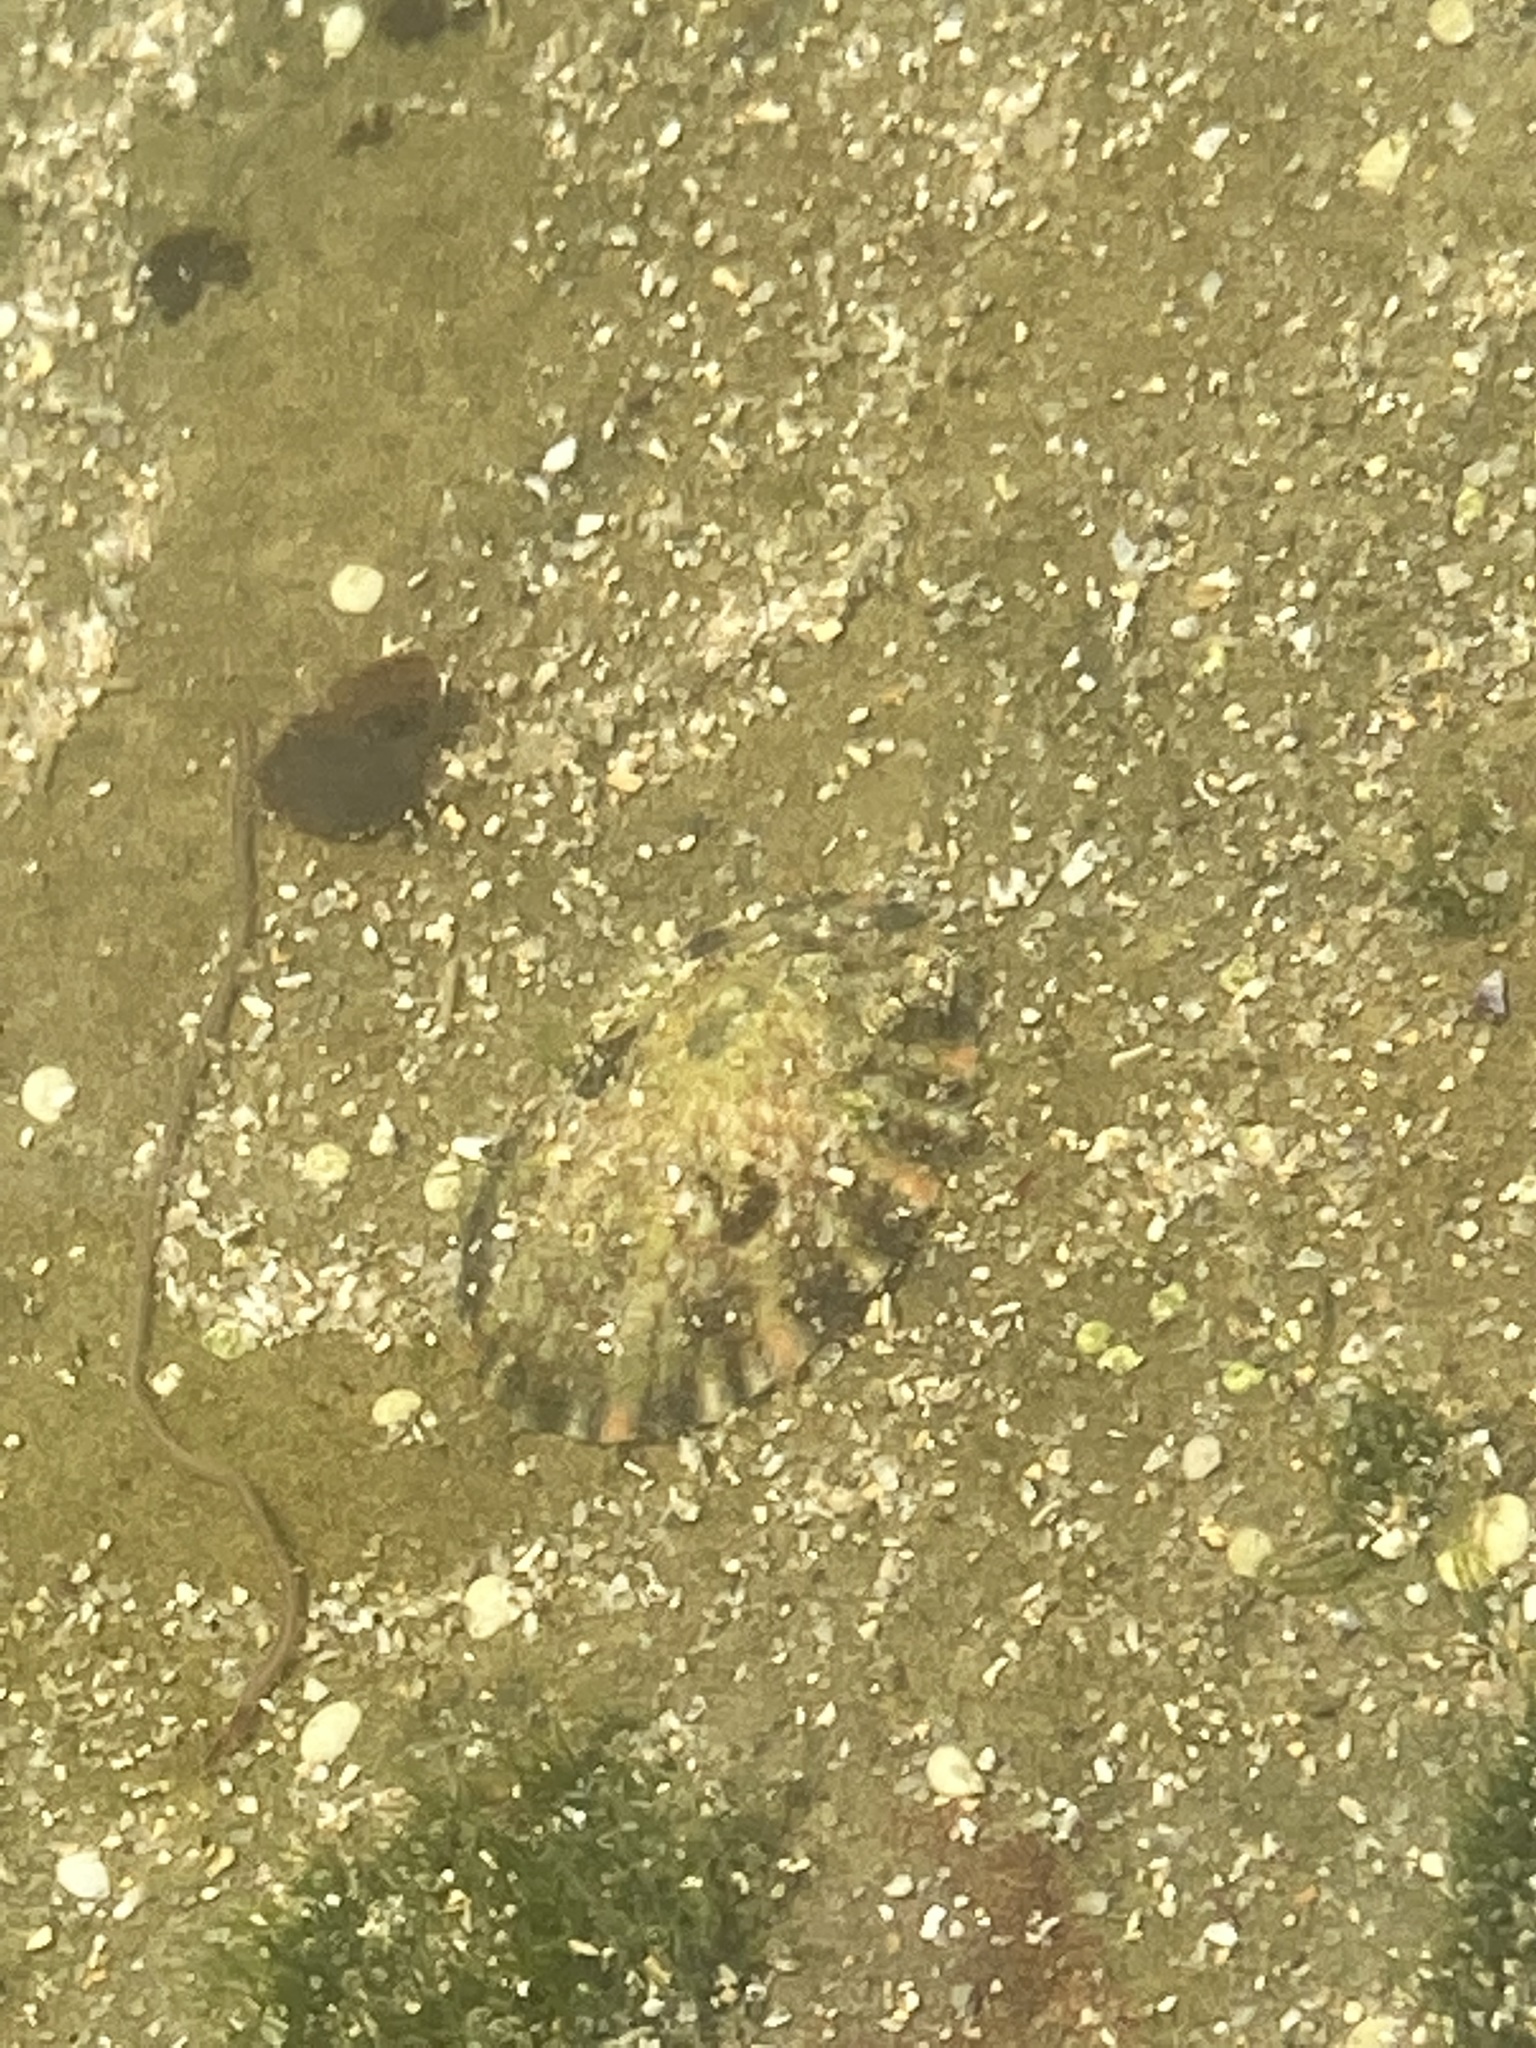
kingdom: Animalia
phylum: Mollusca
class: Gastropoda
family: Nacellidae
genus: Cellana
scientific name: Cellana tramoserica
